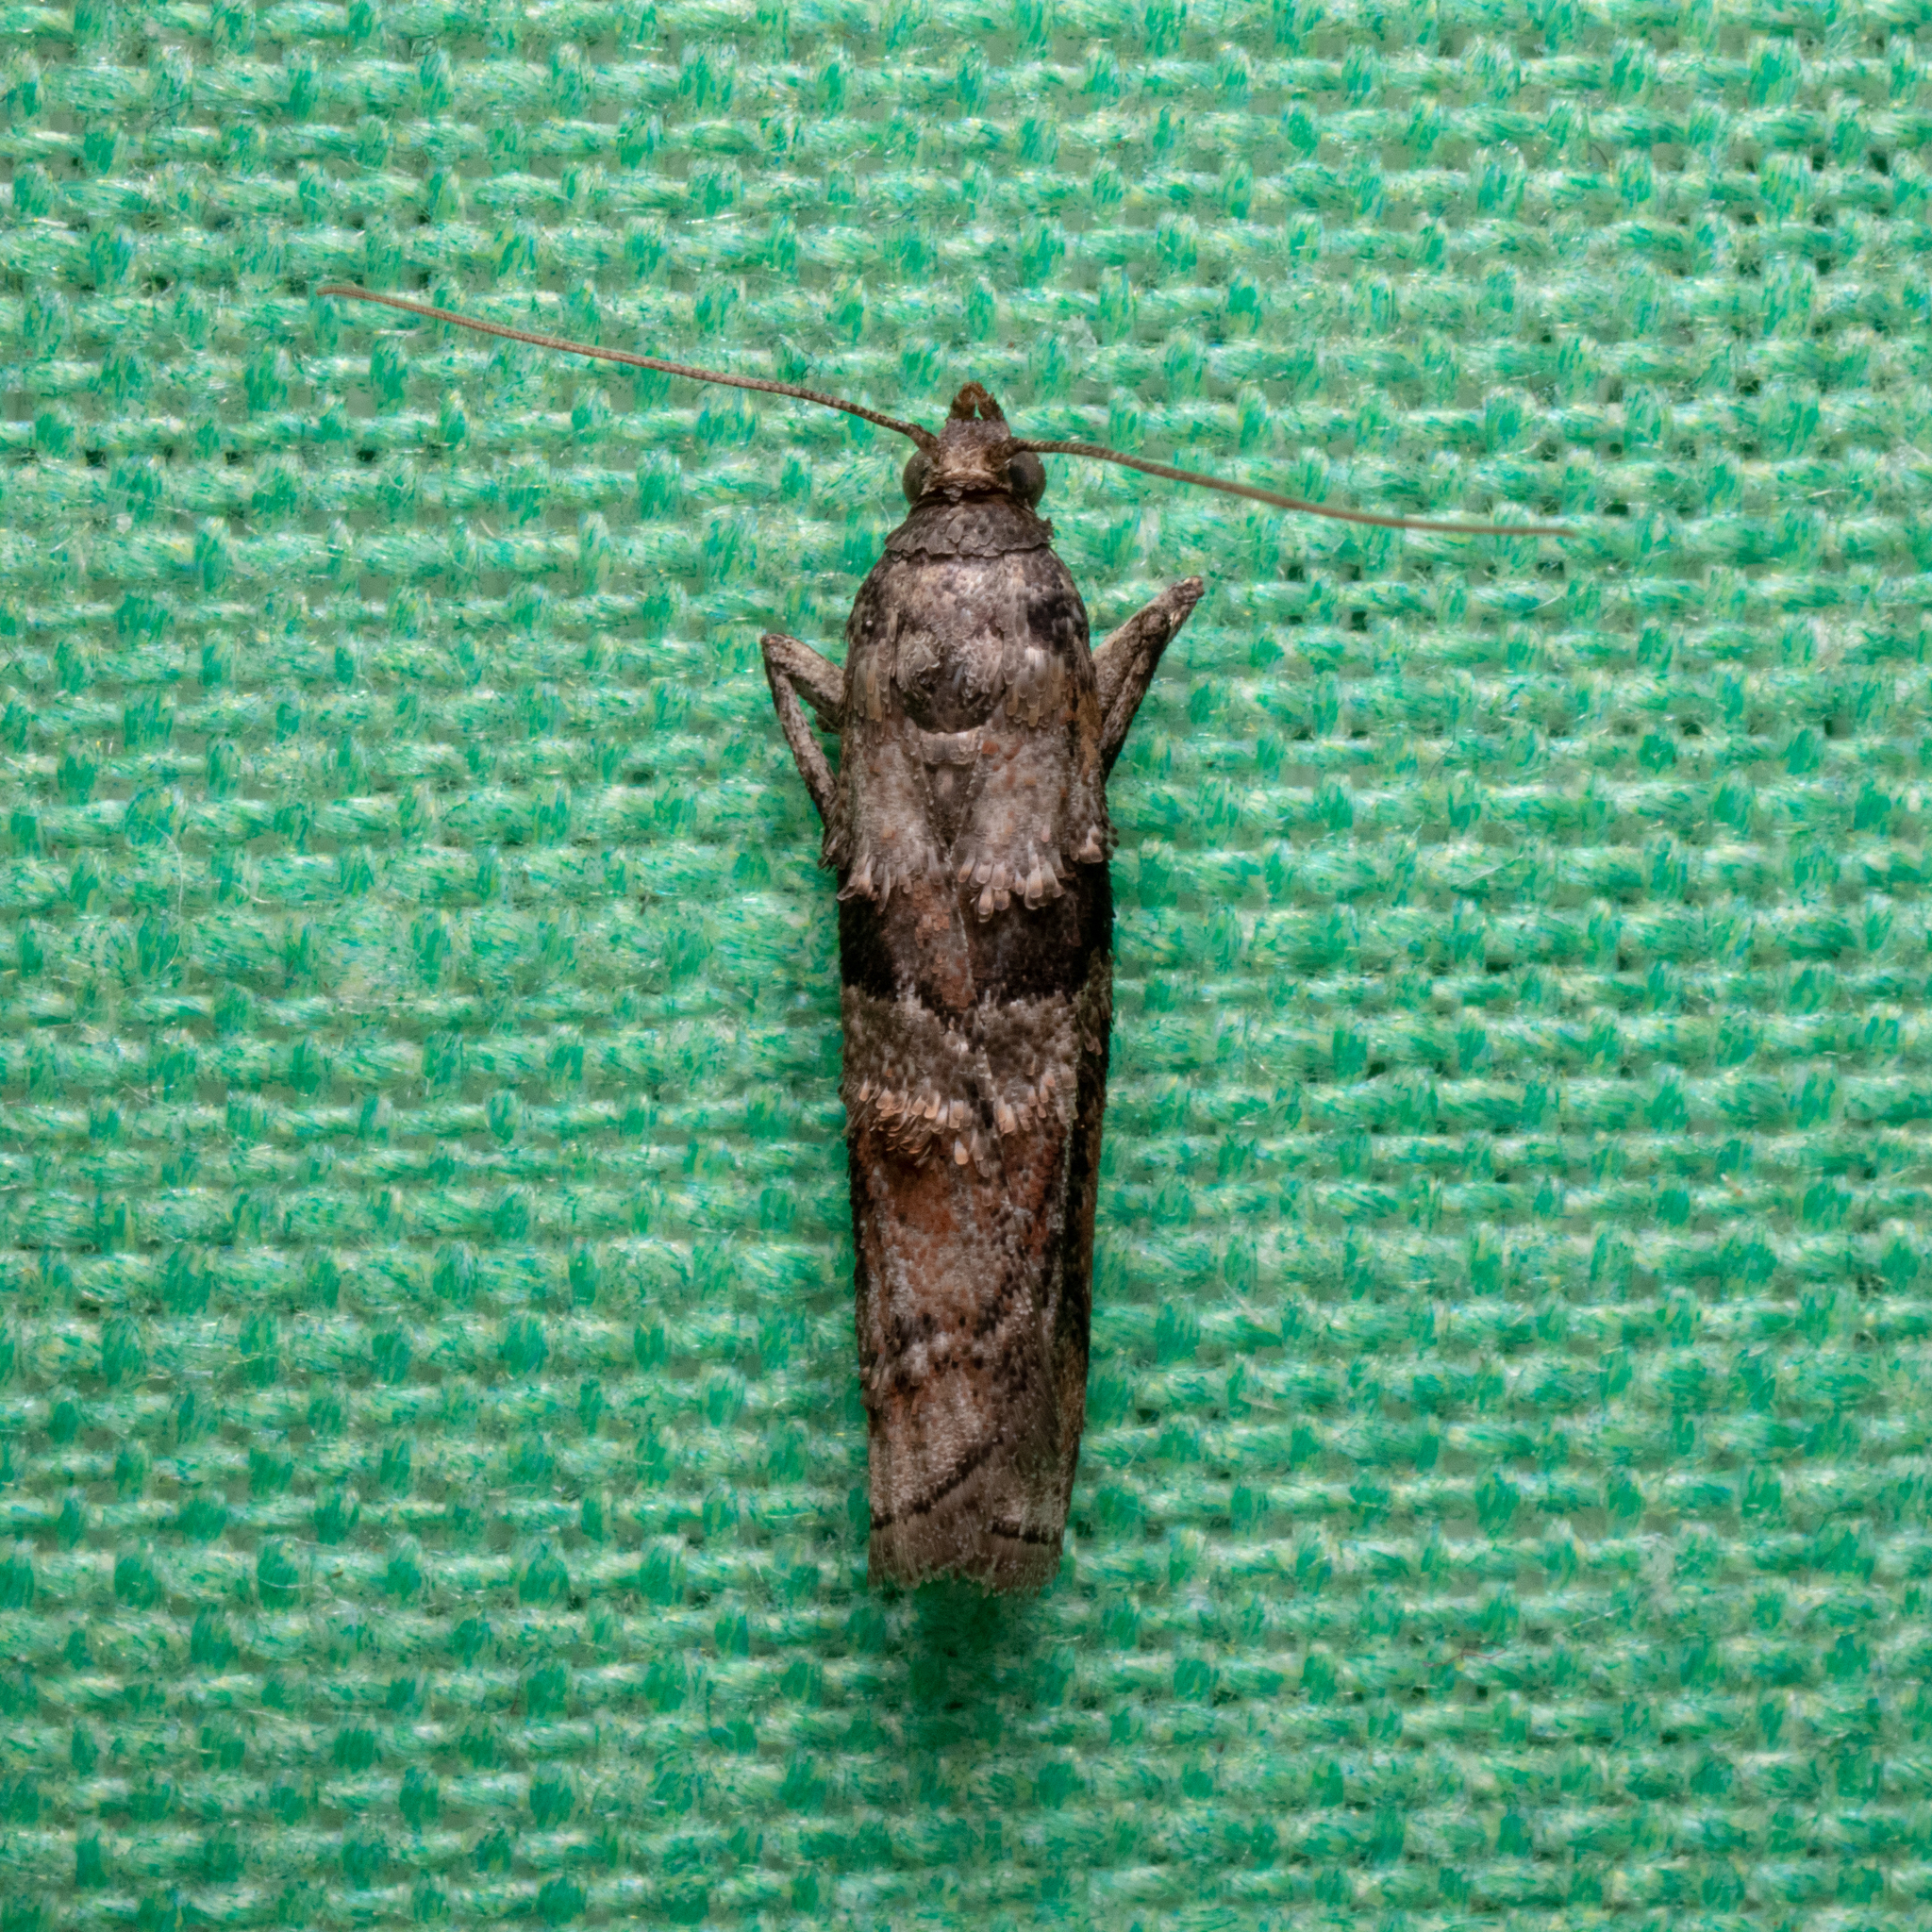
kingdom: Animalia
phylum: Arthropoda
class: Insecta
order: Lepidoptera
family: Pyralidae
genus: Dioryctria
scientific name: Dioryctria clarioralis
